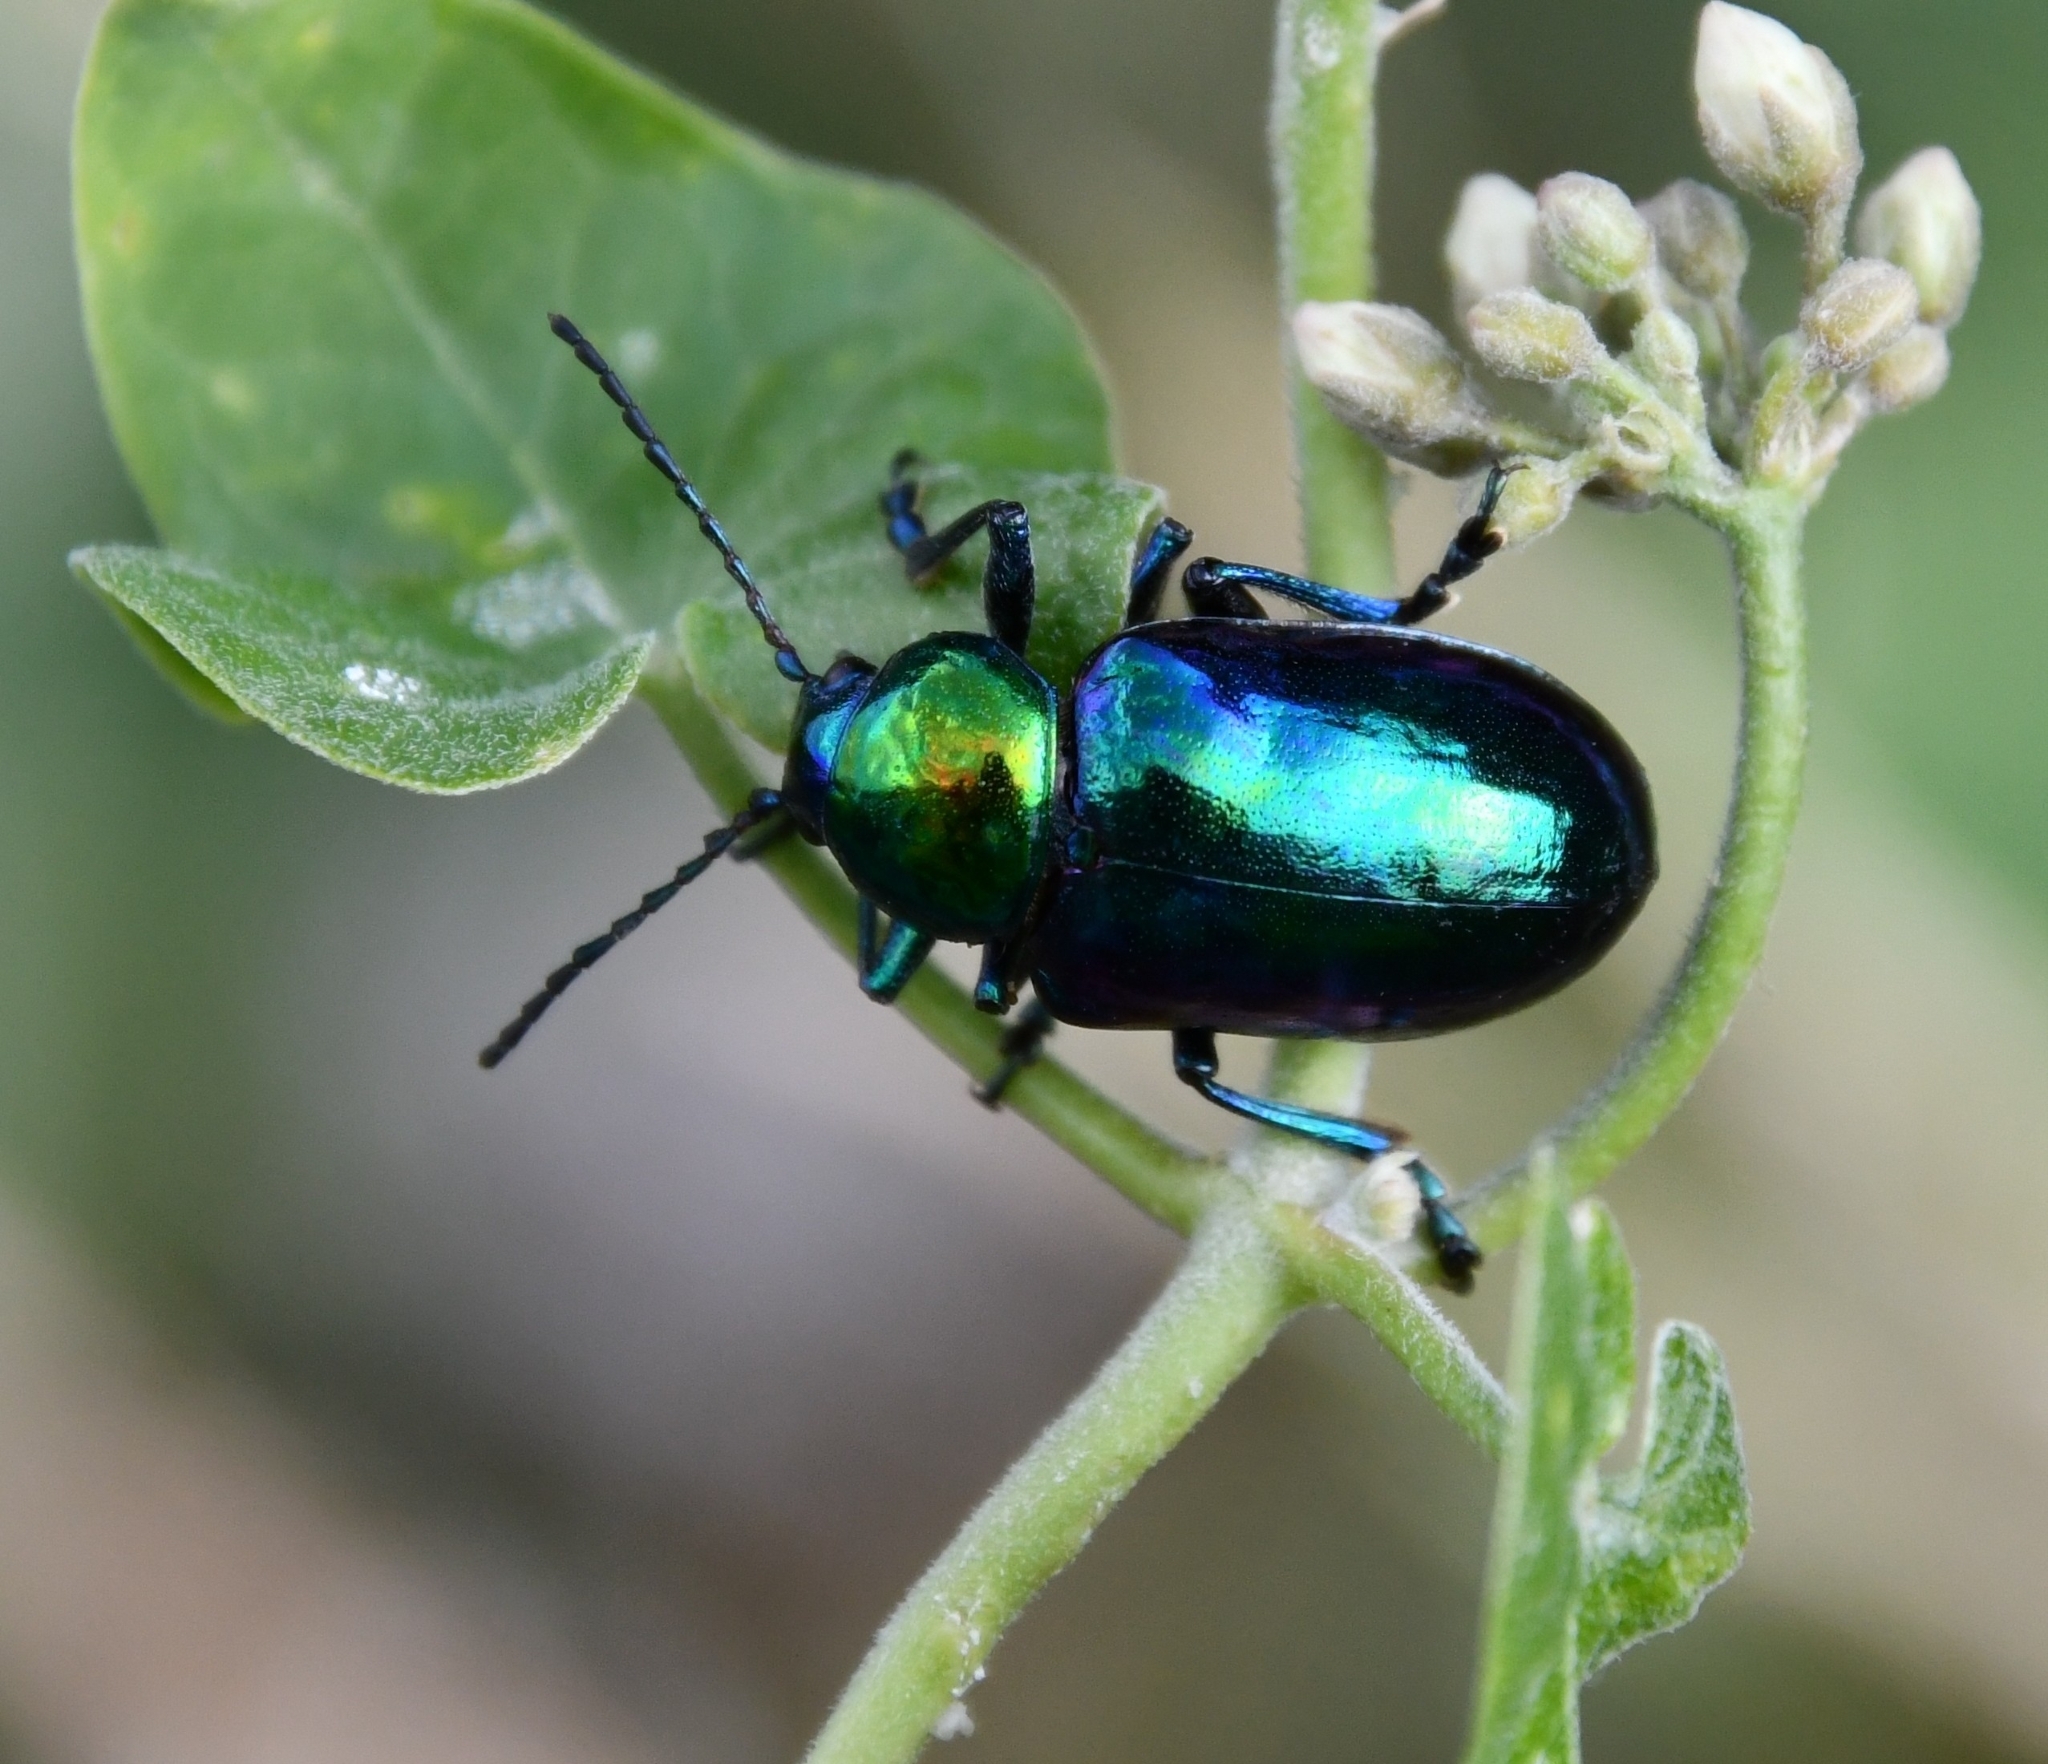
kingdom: Animalia
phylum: Arthropoda
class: Insecta
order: Coleoptera
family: Chrysomelidae
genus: Chrysochares
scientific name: Chrysochares
